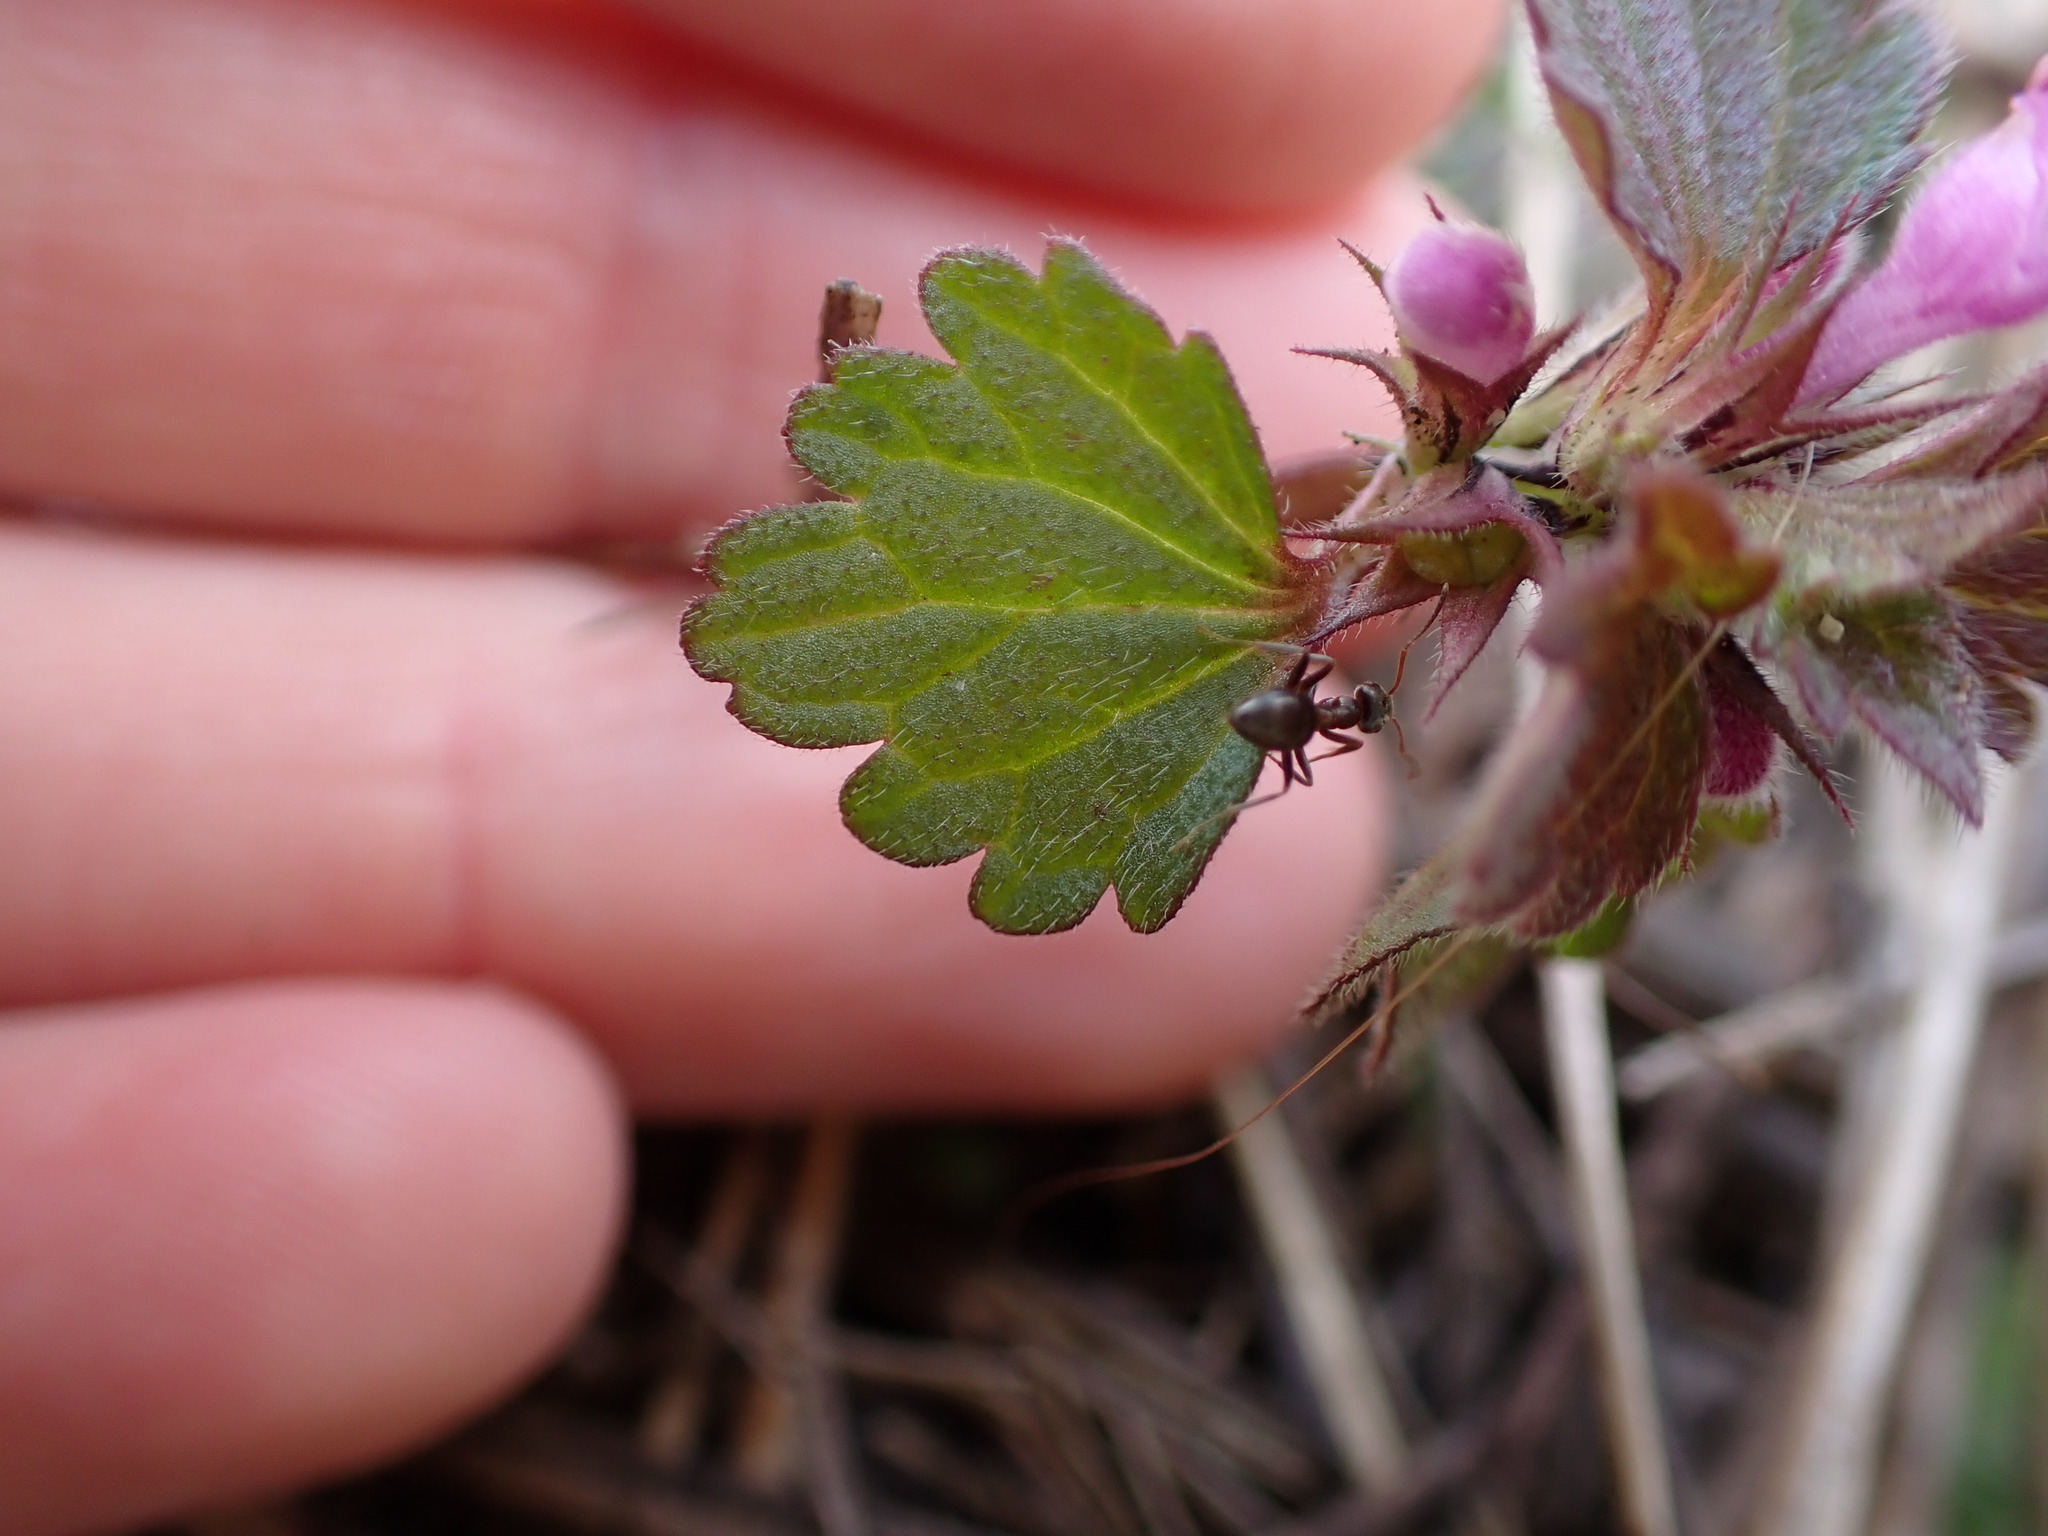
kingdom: Plantae
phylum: Tracheophyta
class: Magnoliopsida
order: Lamiales
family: Lamiaceae
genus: Lamium
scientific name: Lamium purpureum
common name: Red dead-nettle
